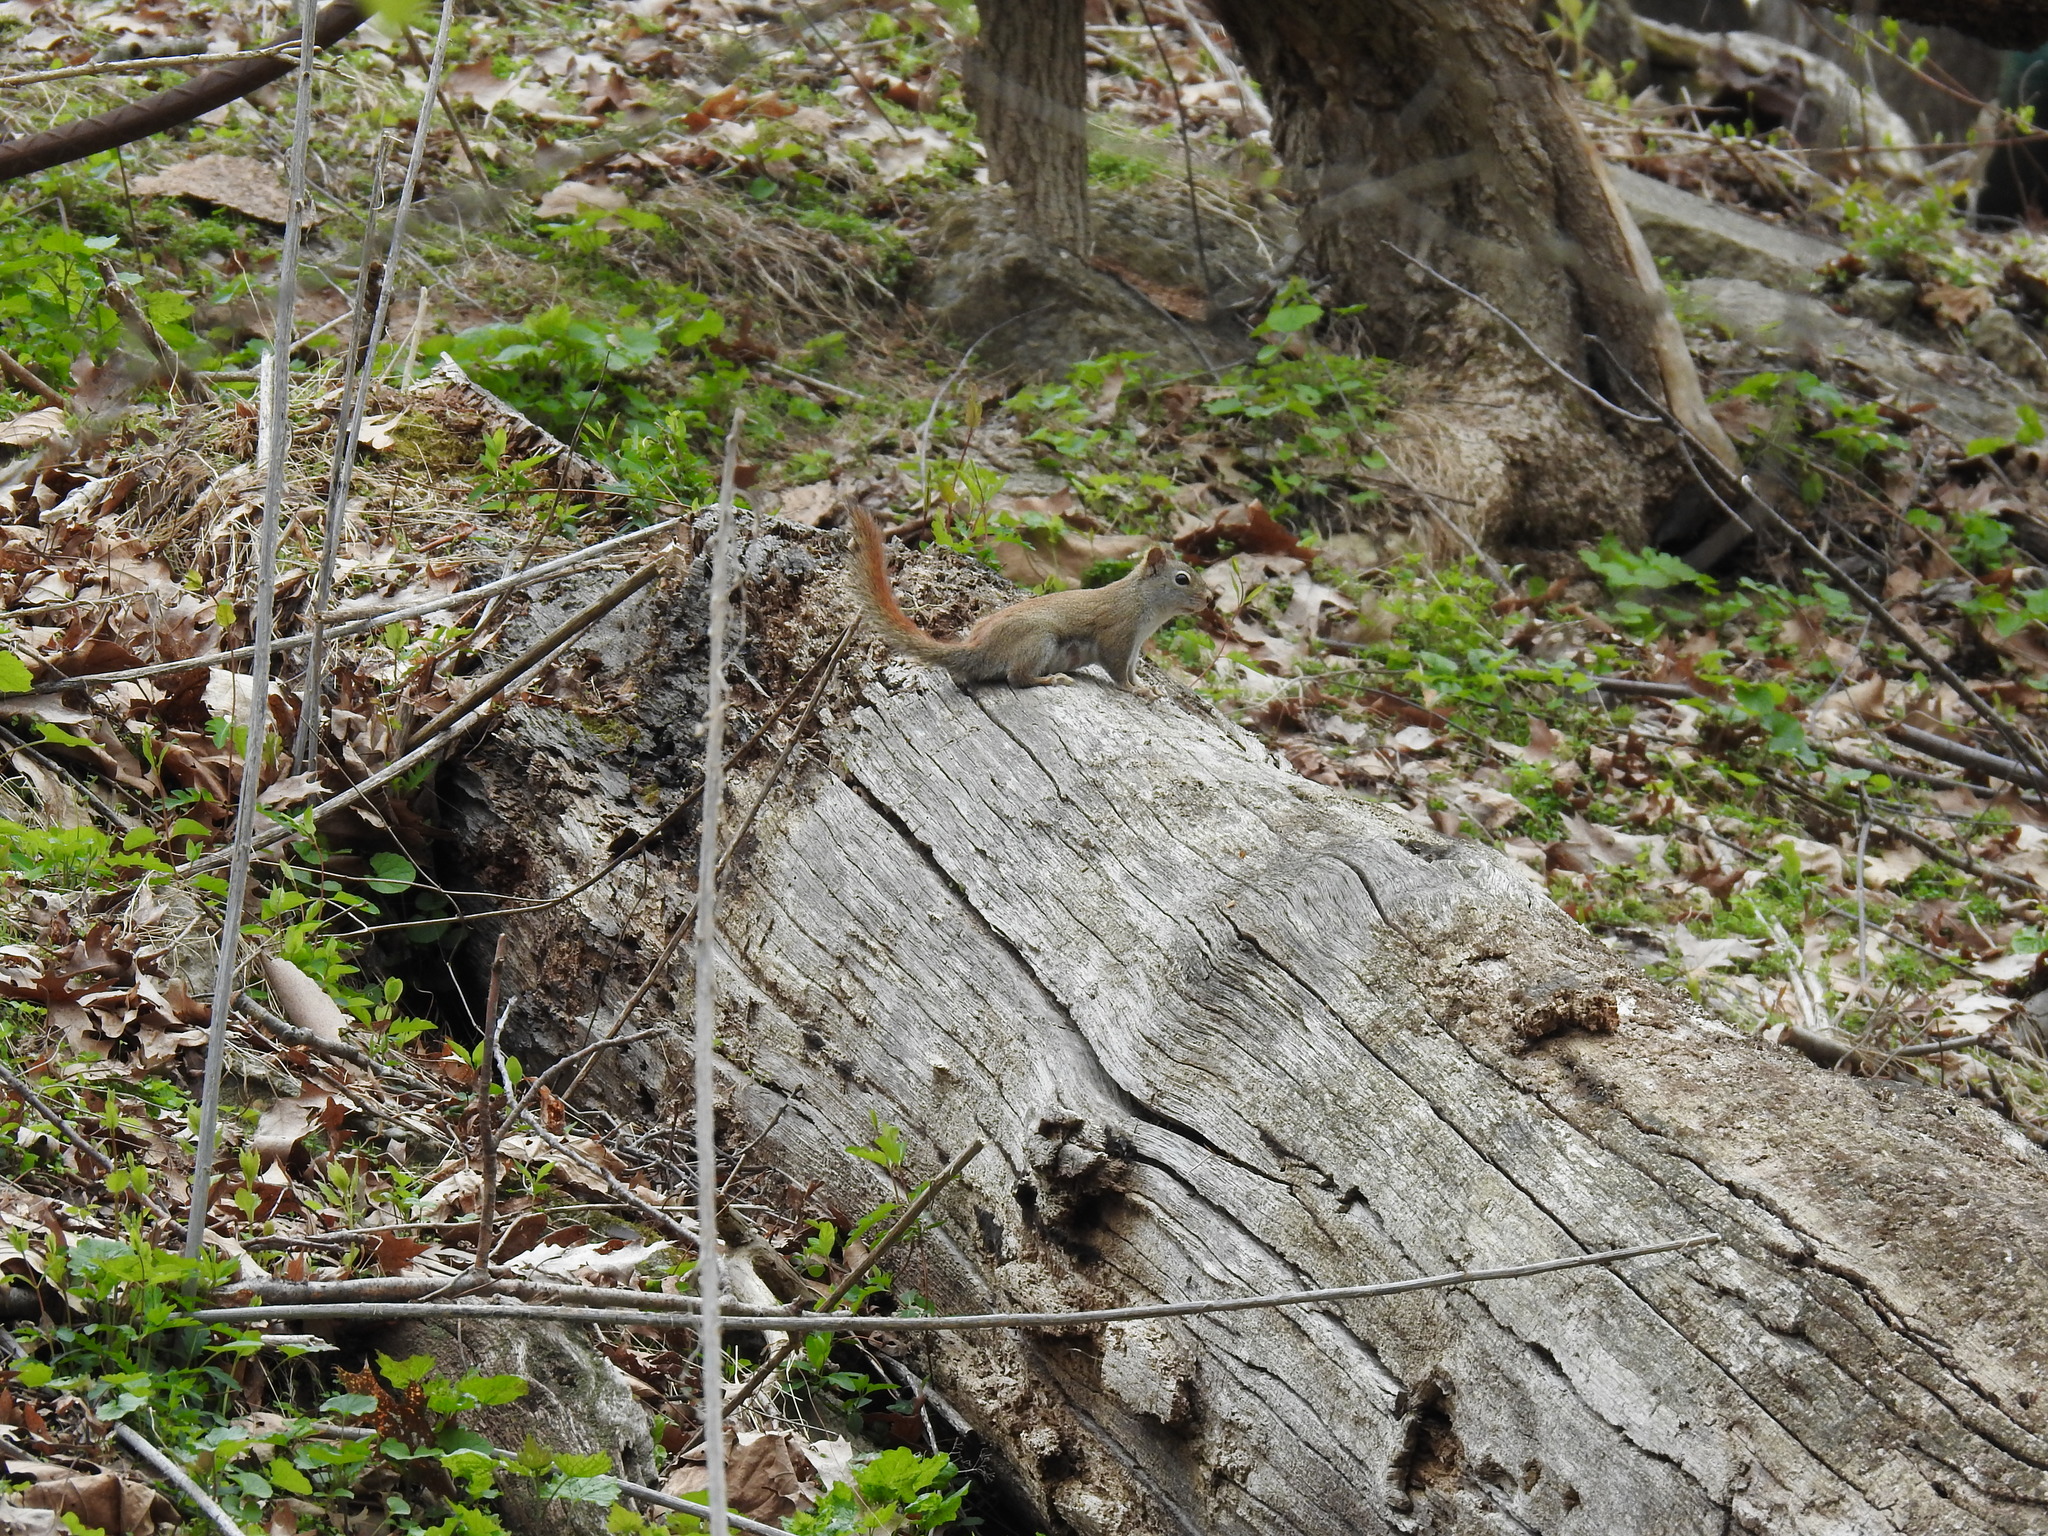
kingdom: Animalia
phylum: Chordata
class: Mammalia
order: Rodentia
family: Sciuridae
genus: Tamiasciurus
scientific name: Tamiasciurus hudsonicus
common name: Red squirrel
